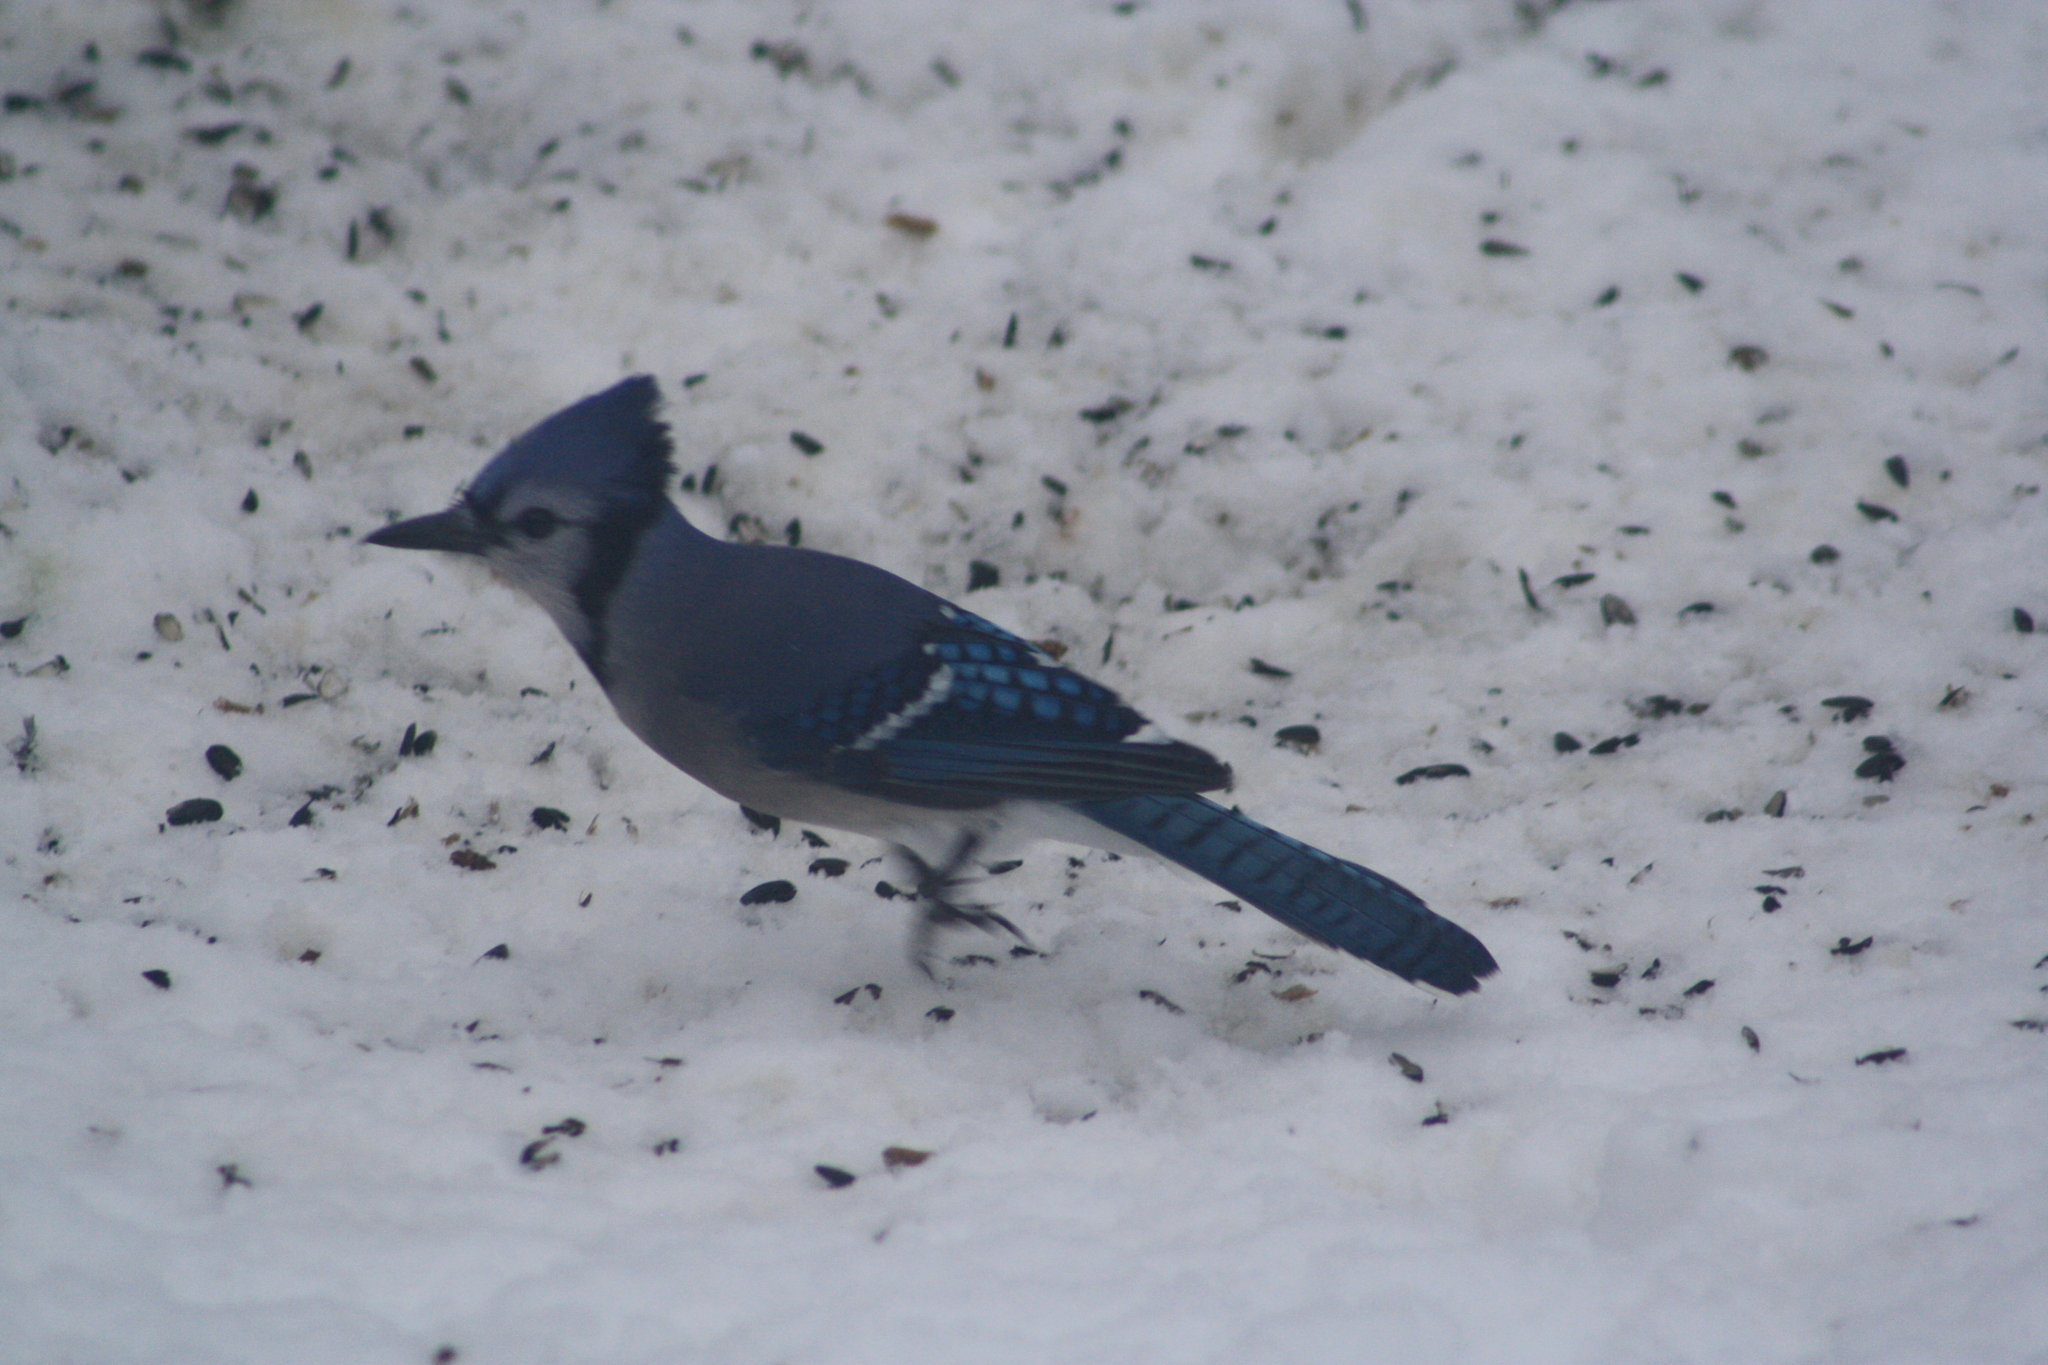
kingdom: Animalia
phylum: Chordata
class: Aves
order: Passeriformes
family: Corvidae
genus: Cyanocitta
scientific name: Cyanocitta cristata
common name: Blue jay
